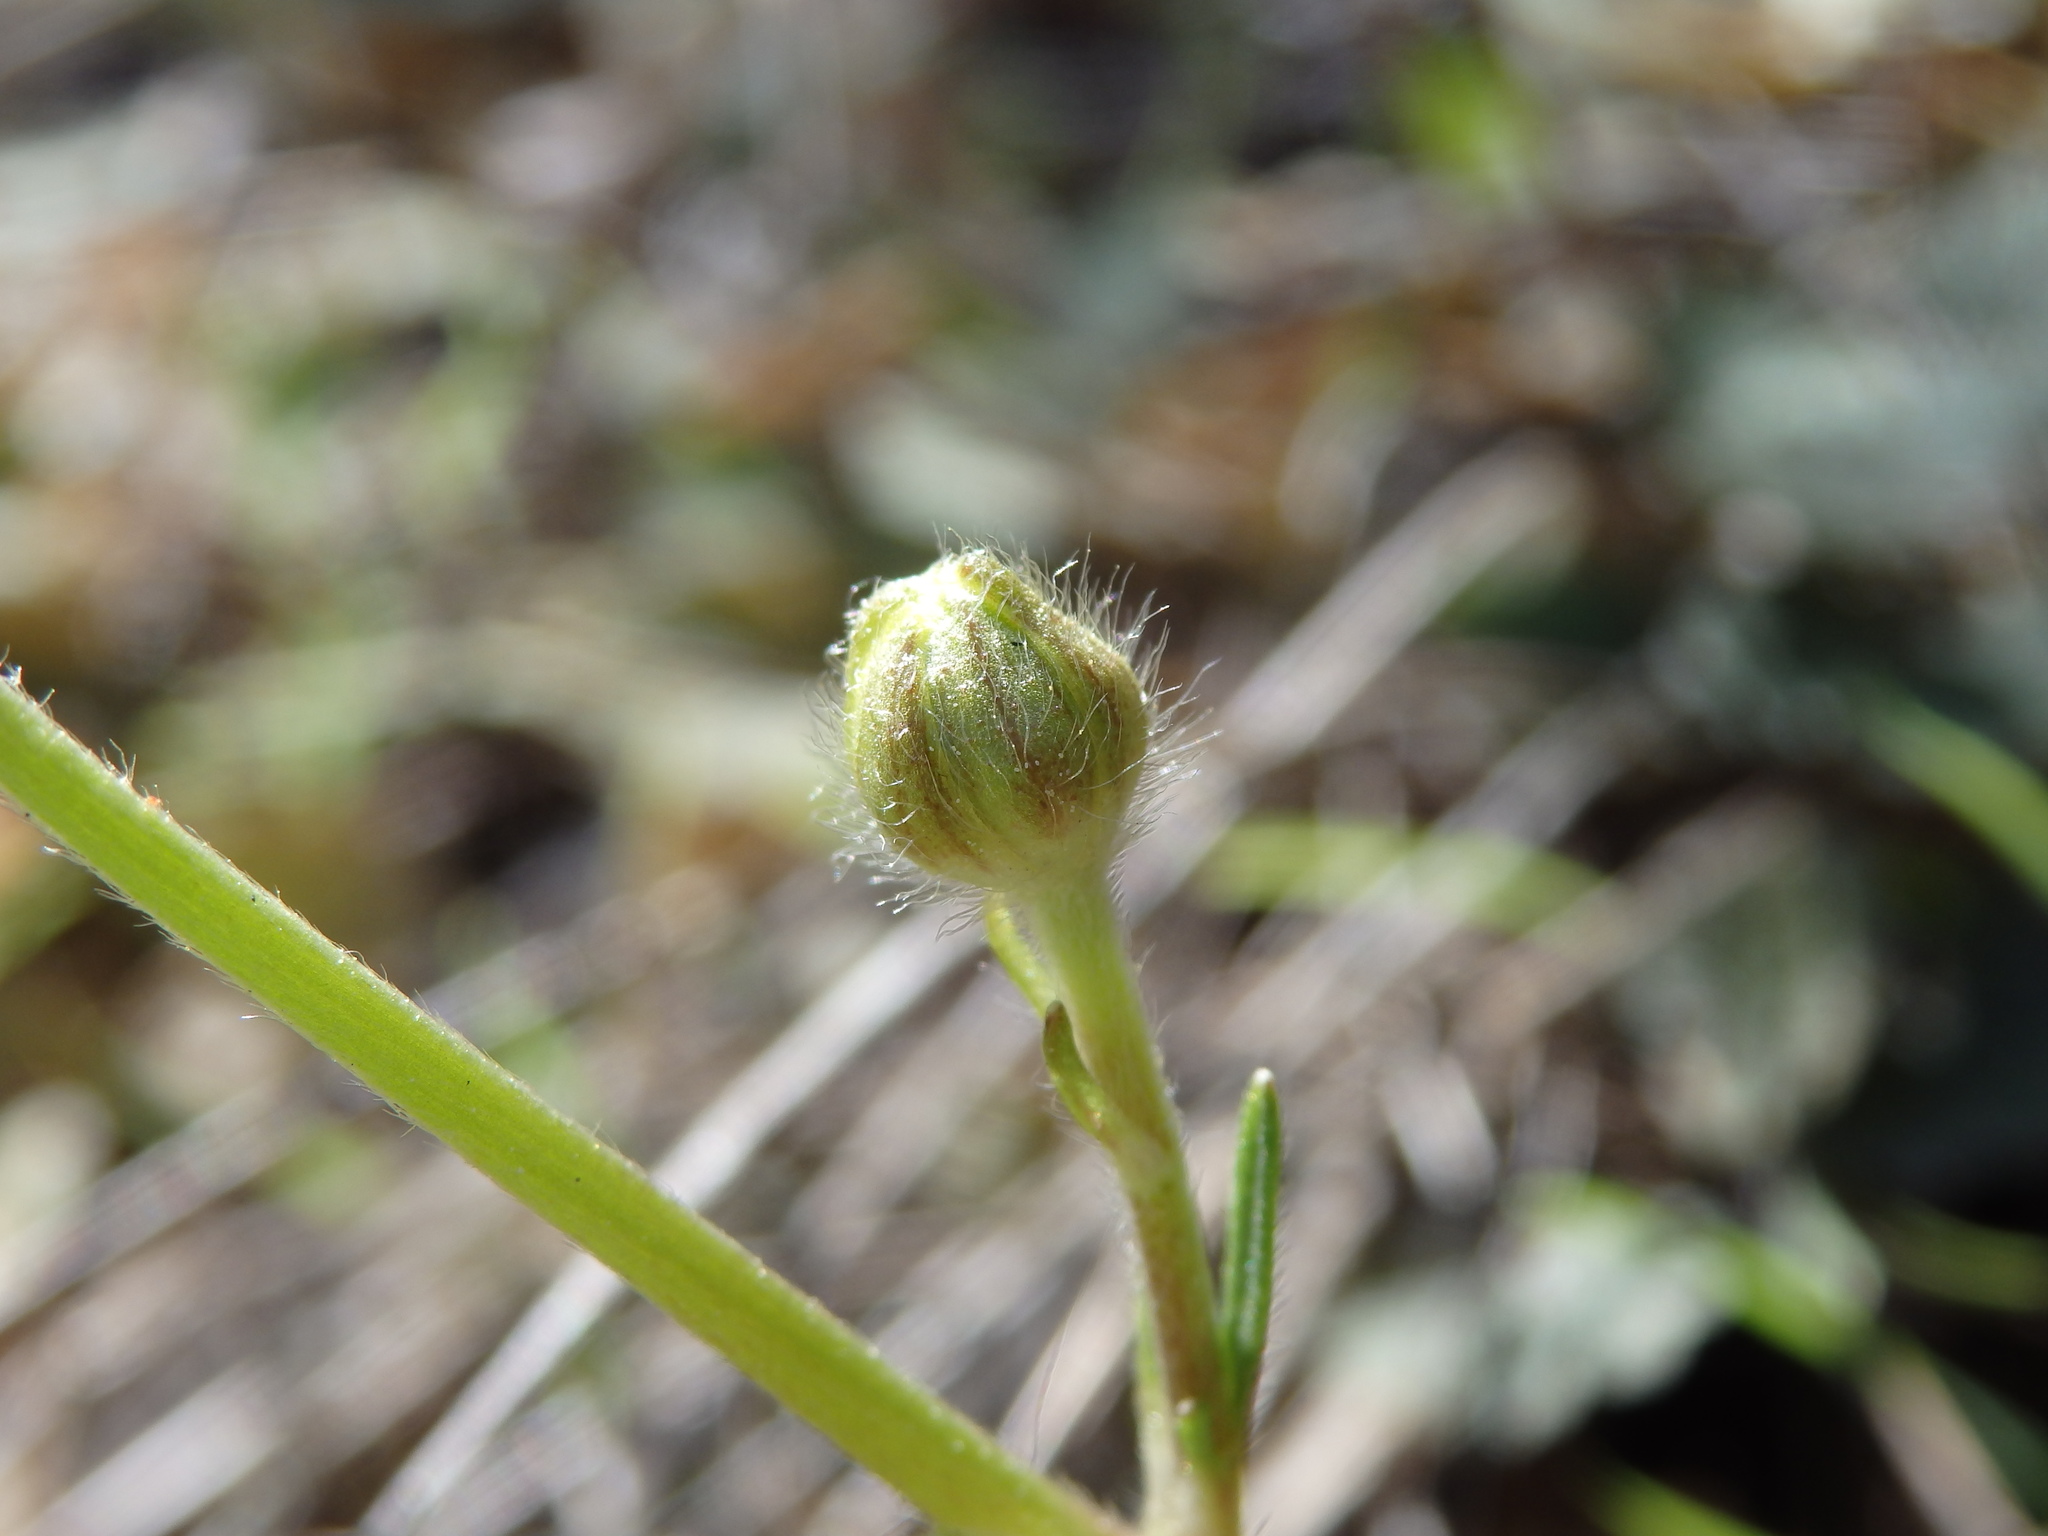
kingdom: Plantae
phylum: Tracheophyta
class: Magnoliopsida
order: Ranunculales
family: Ranunculaceae
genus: Ranunculus
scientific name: Ranunculus nigrescens
